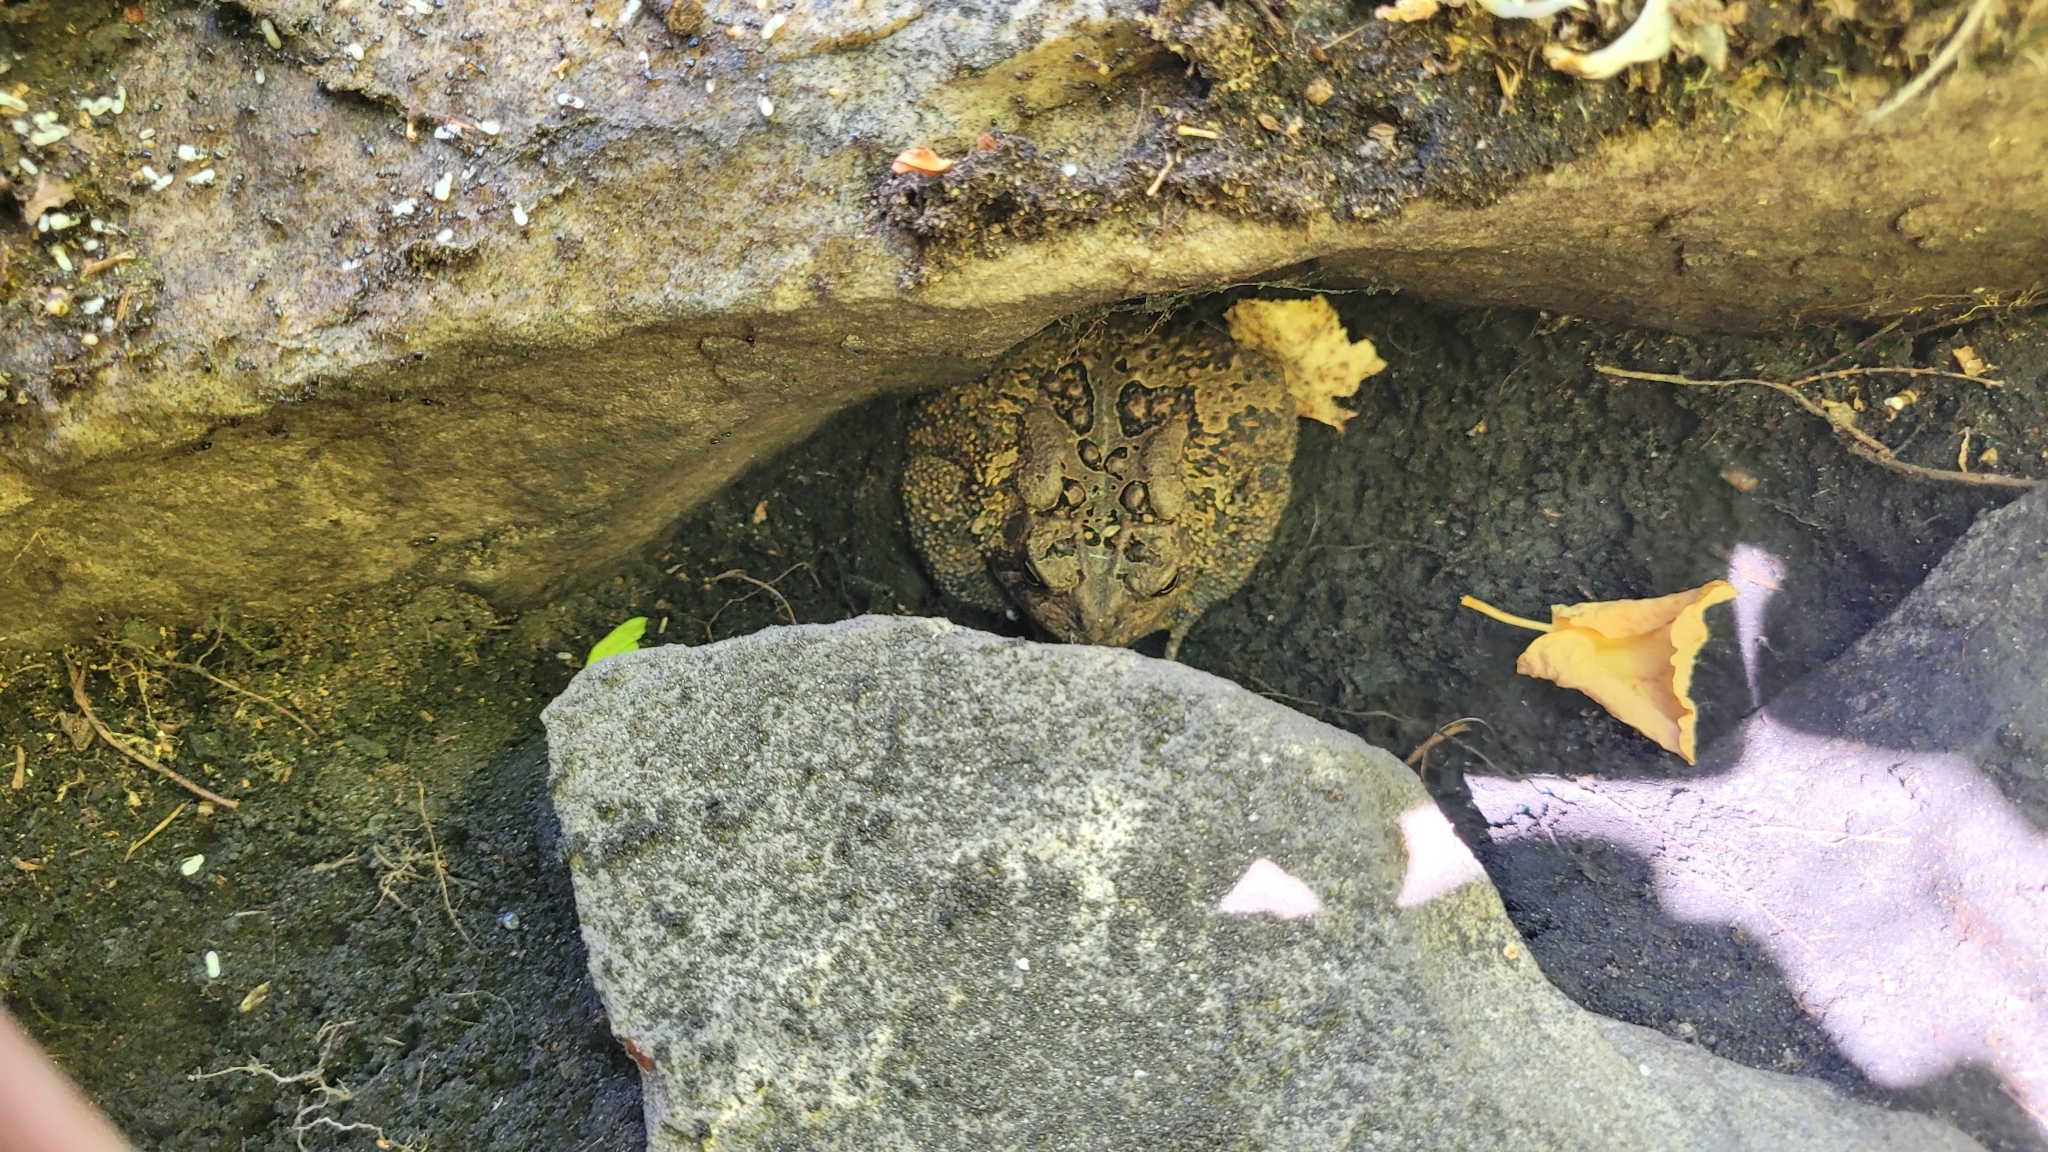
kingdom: Animalia
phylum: Chordata
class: Amphibia
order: Anura
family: Bufonidae
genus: Anaxyrus
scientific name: Anaxyrus americanus
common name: American toad
